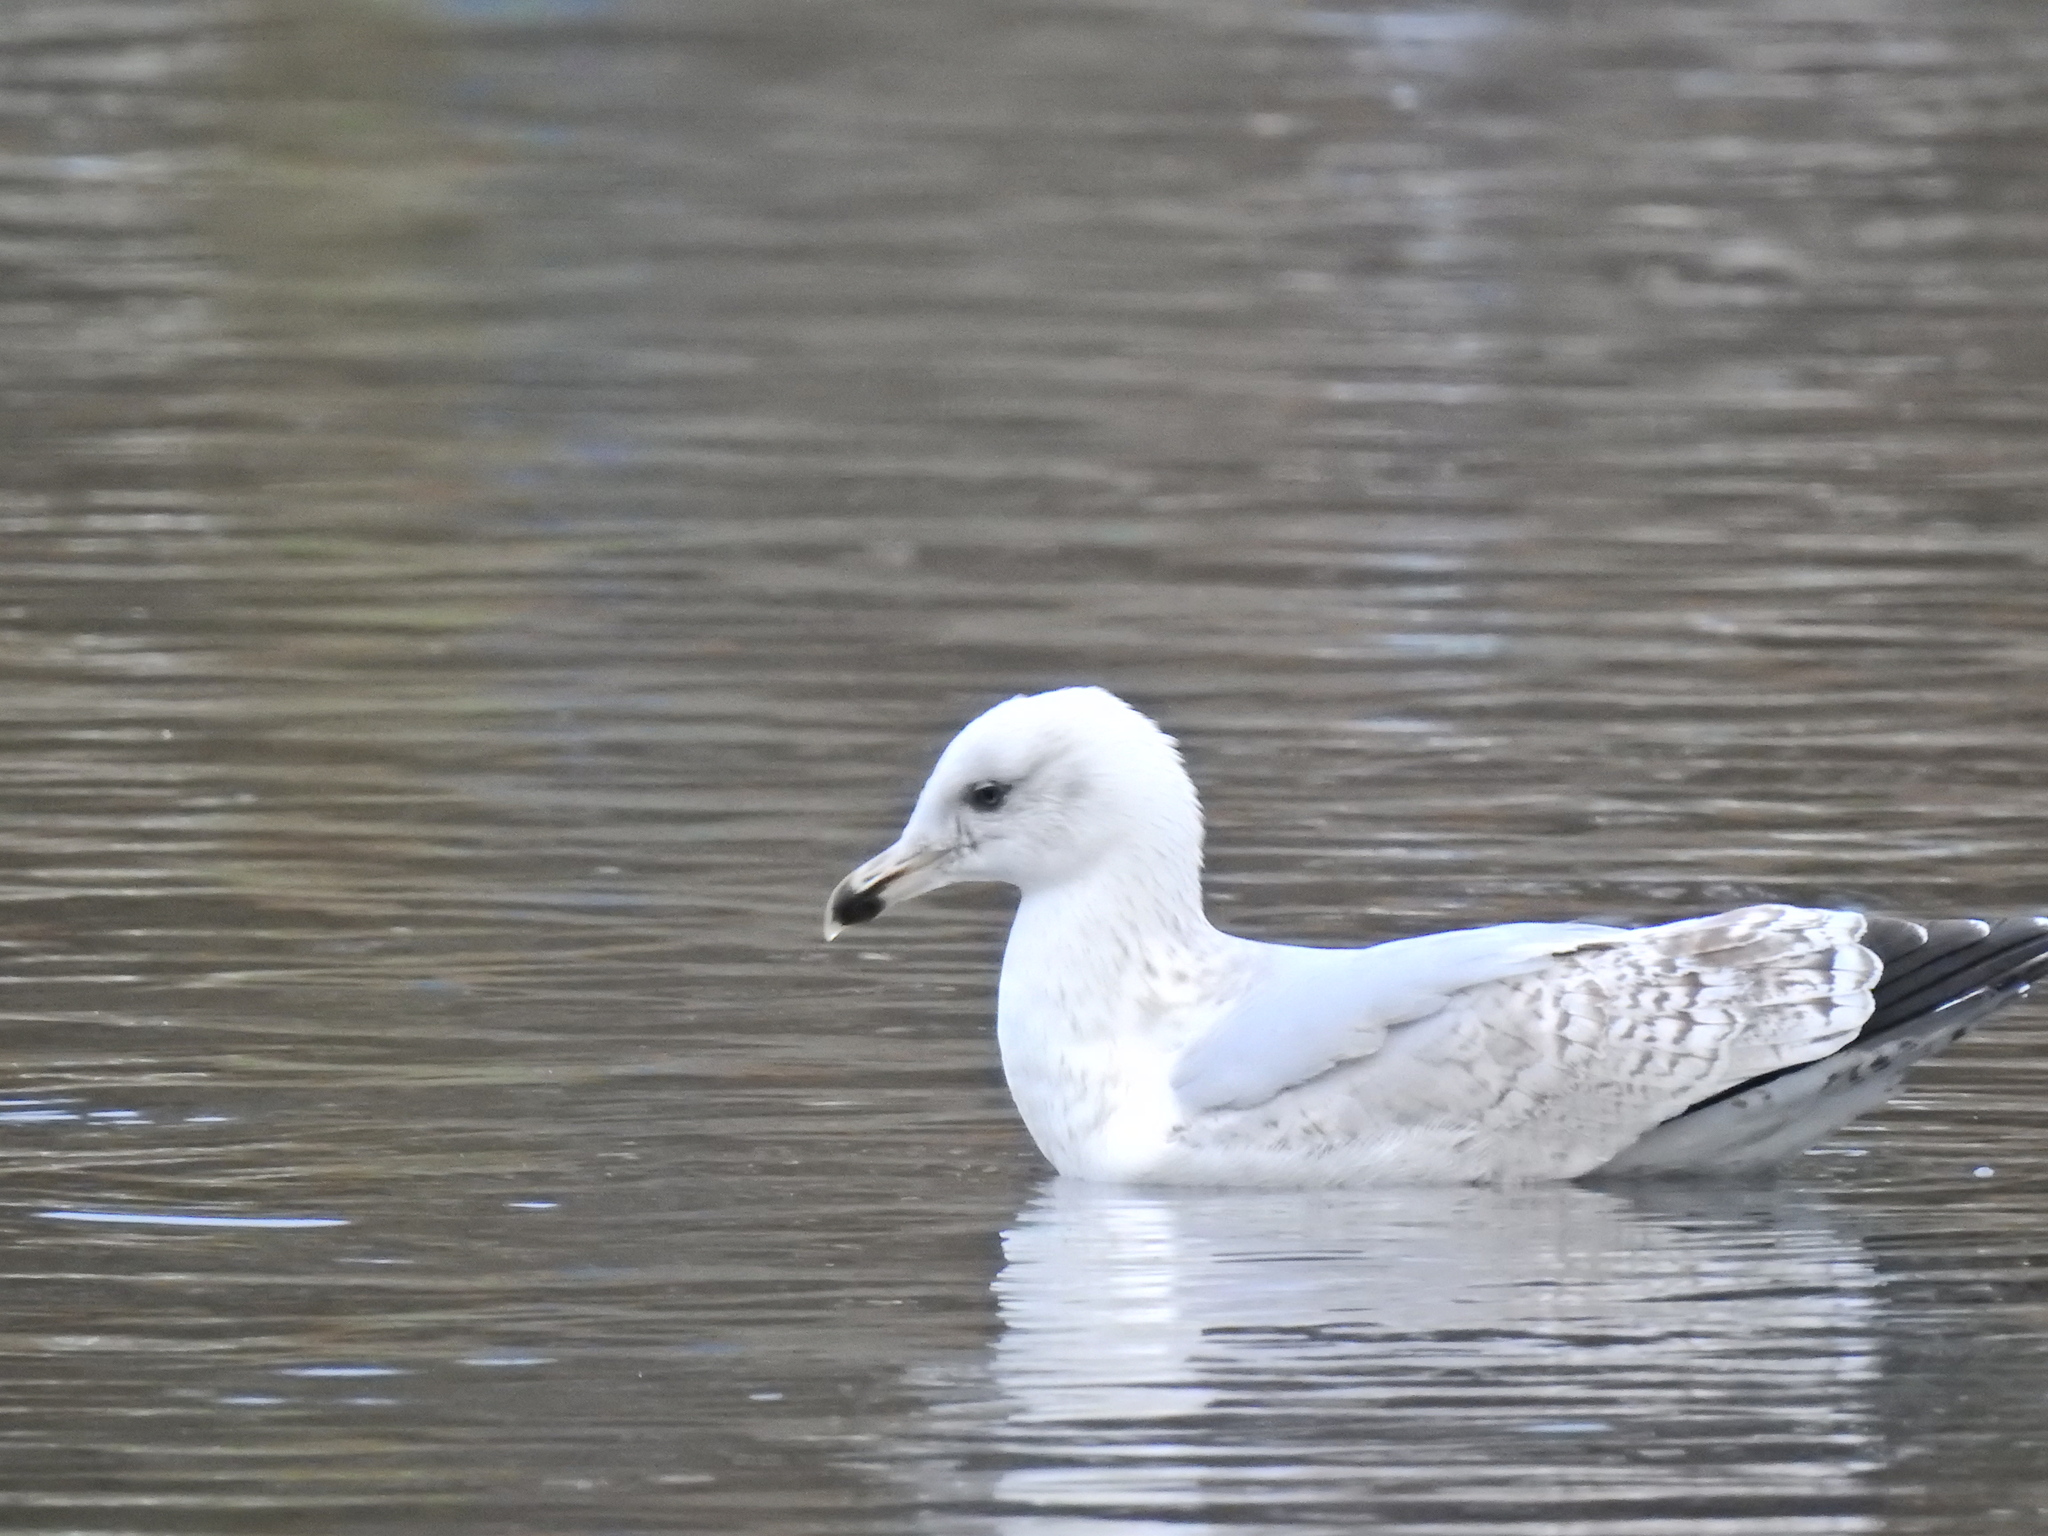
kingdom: Animalia
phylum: Chordata
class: Aves
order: Charadriiformes
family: Laridae
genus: Larus
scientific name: Larus argentatus
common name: Herring gull
